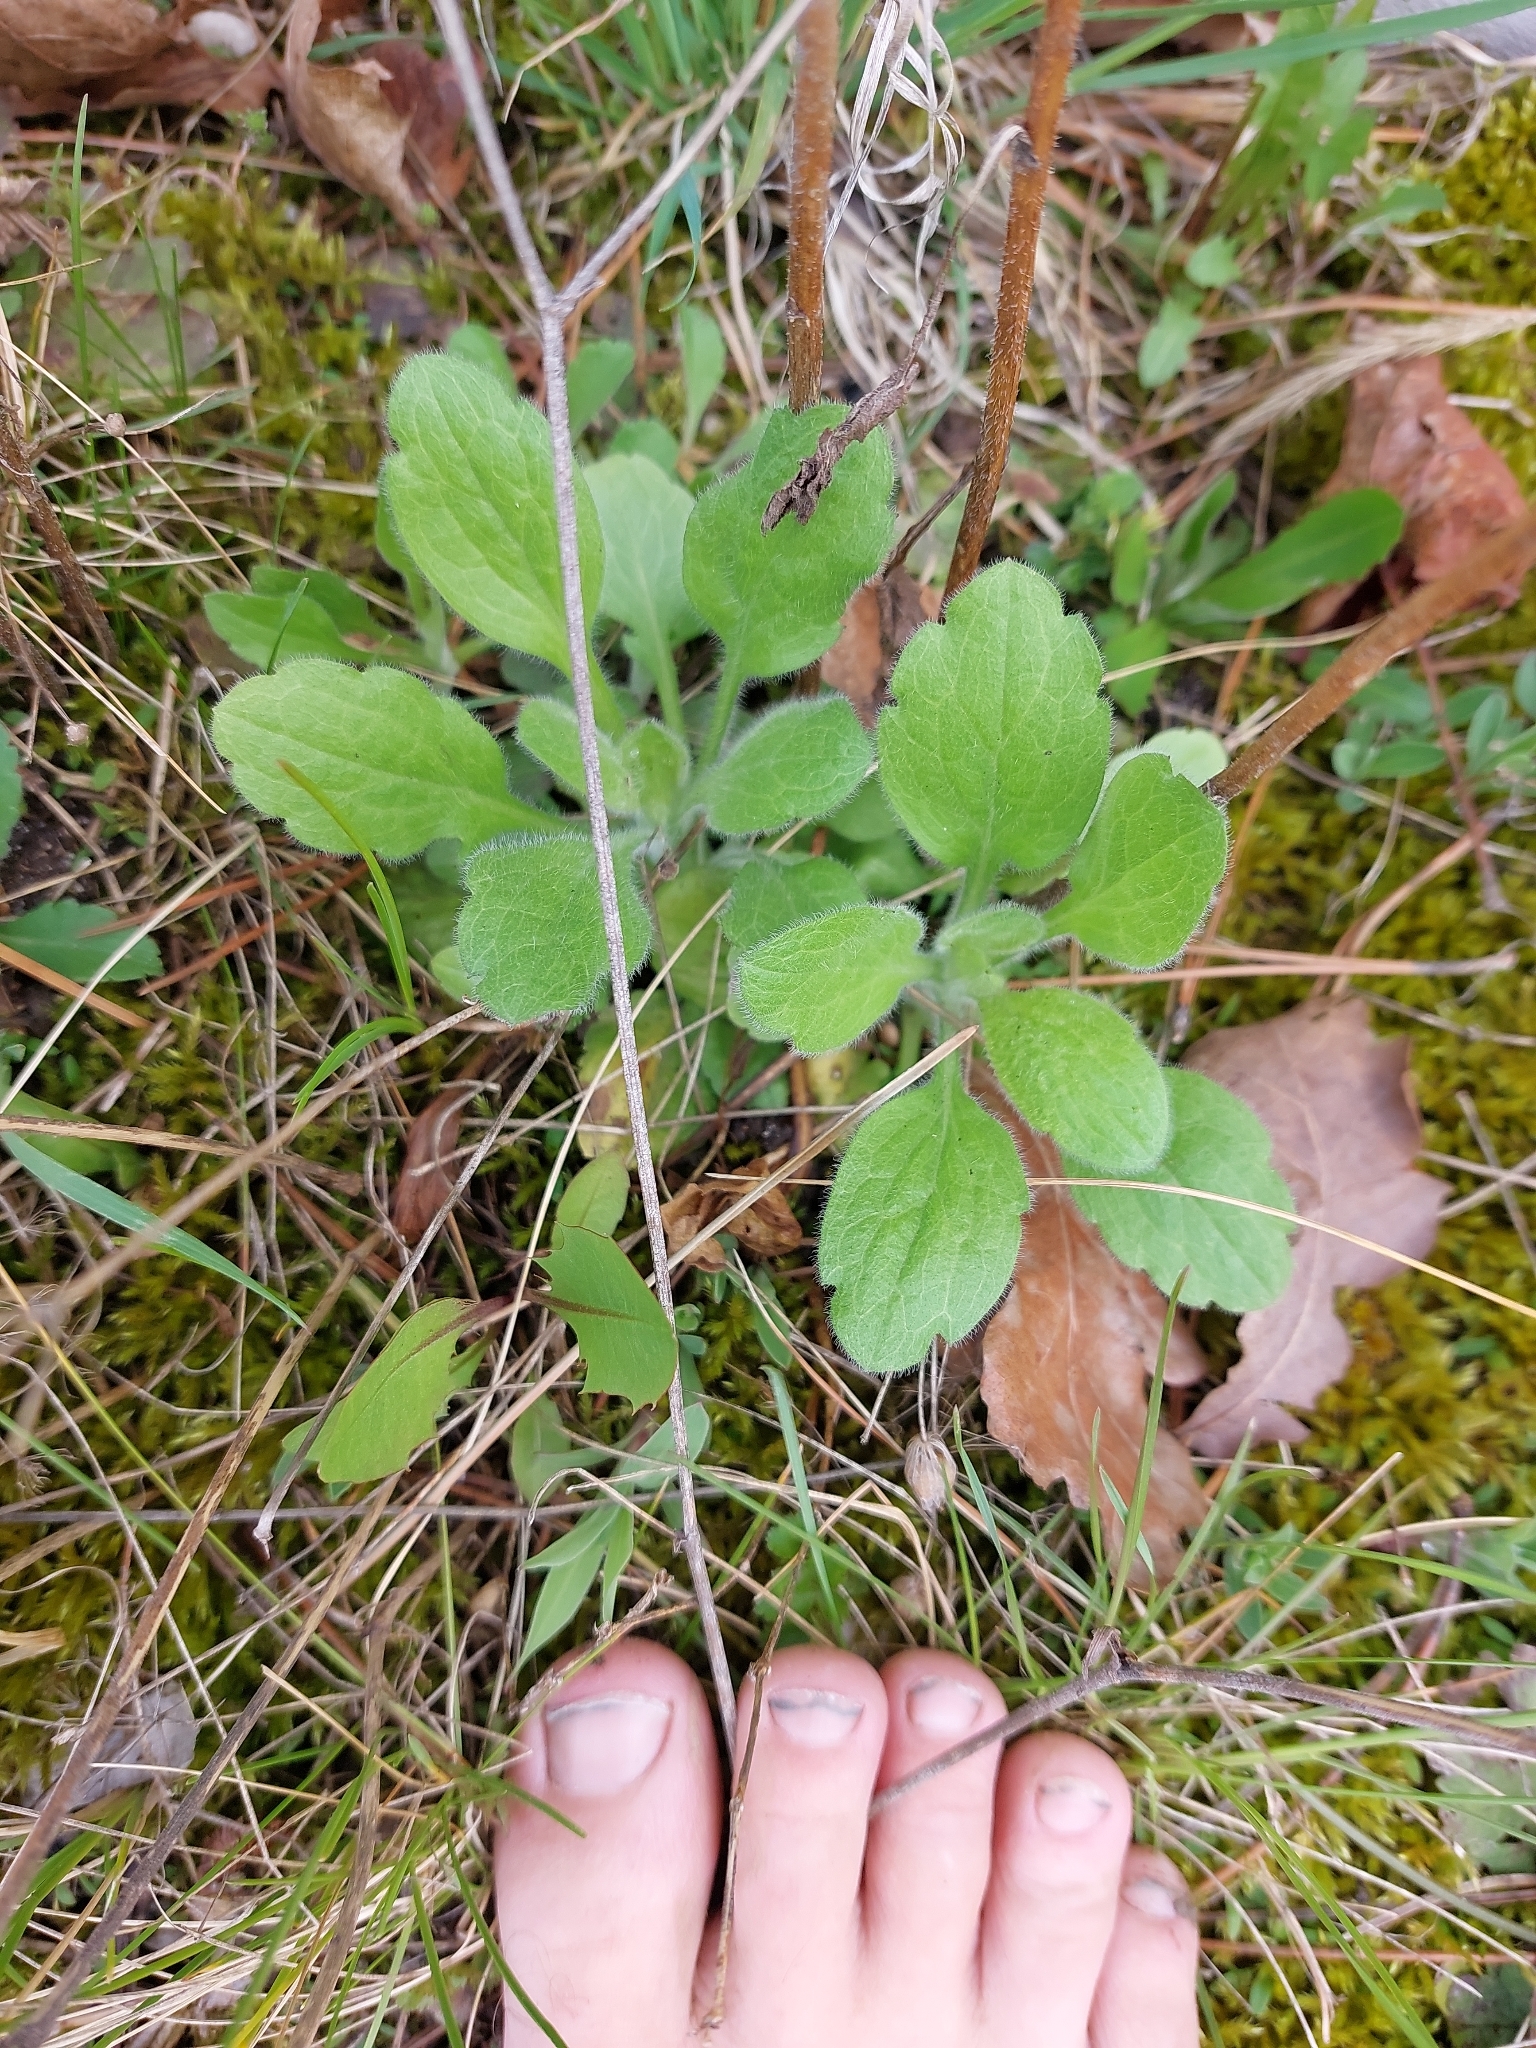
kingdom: Plantae
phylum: Tracheophyta
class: Magnoliopsida
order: Asterales
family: Asteraceae
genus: Erigeron
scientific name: Erigeron annuus
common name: Tall fleabane
